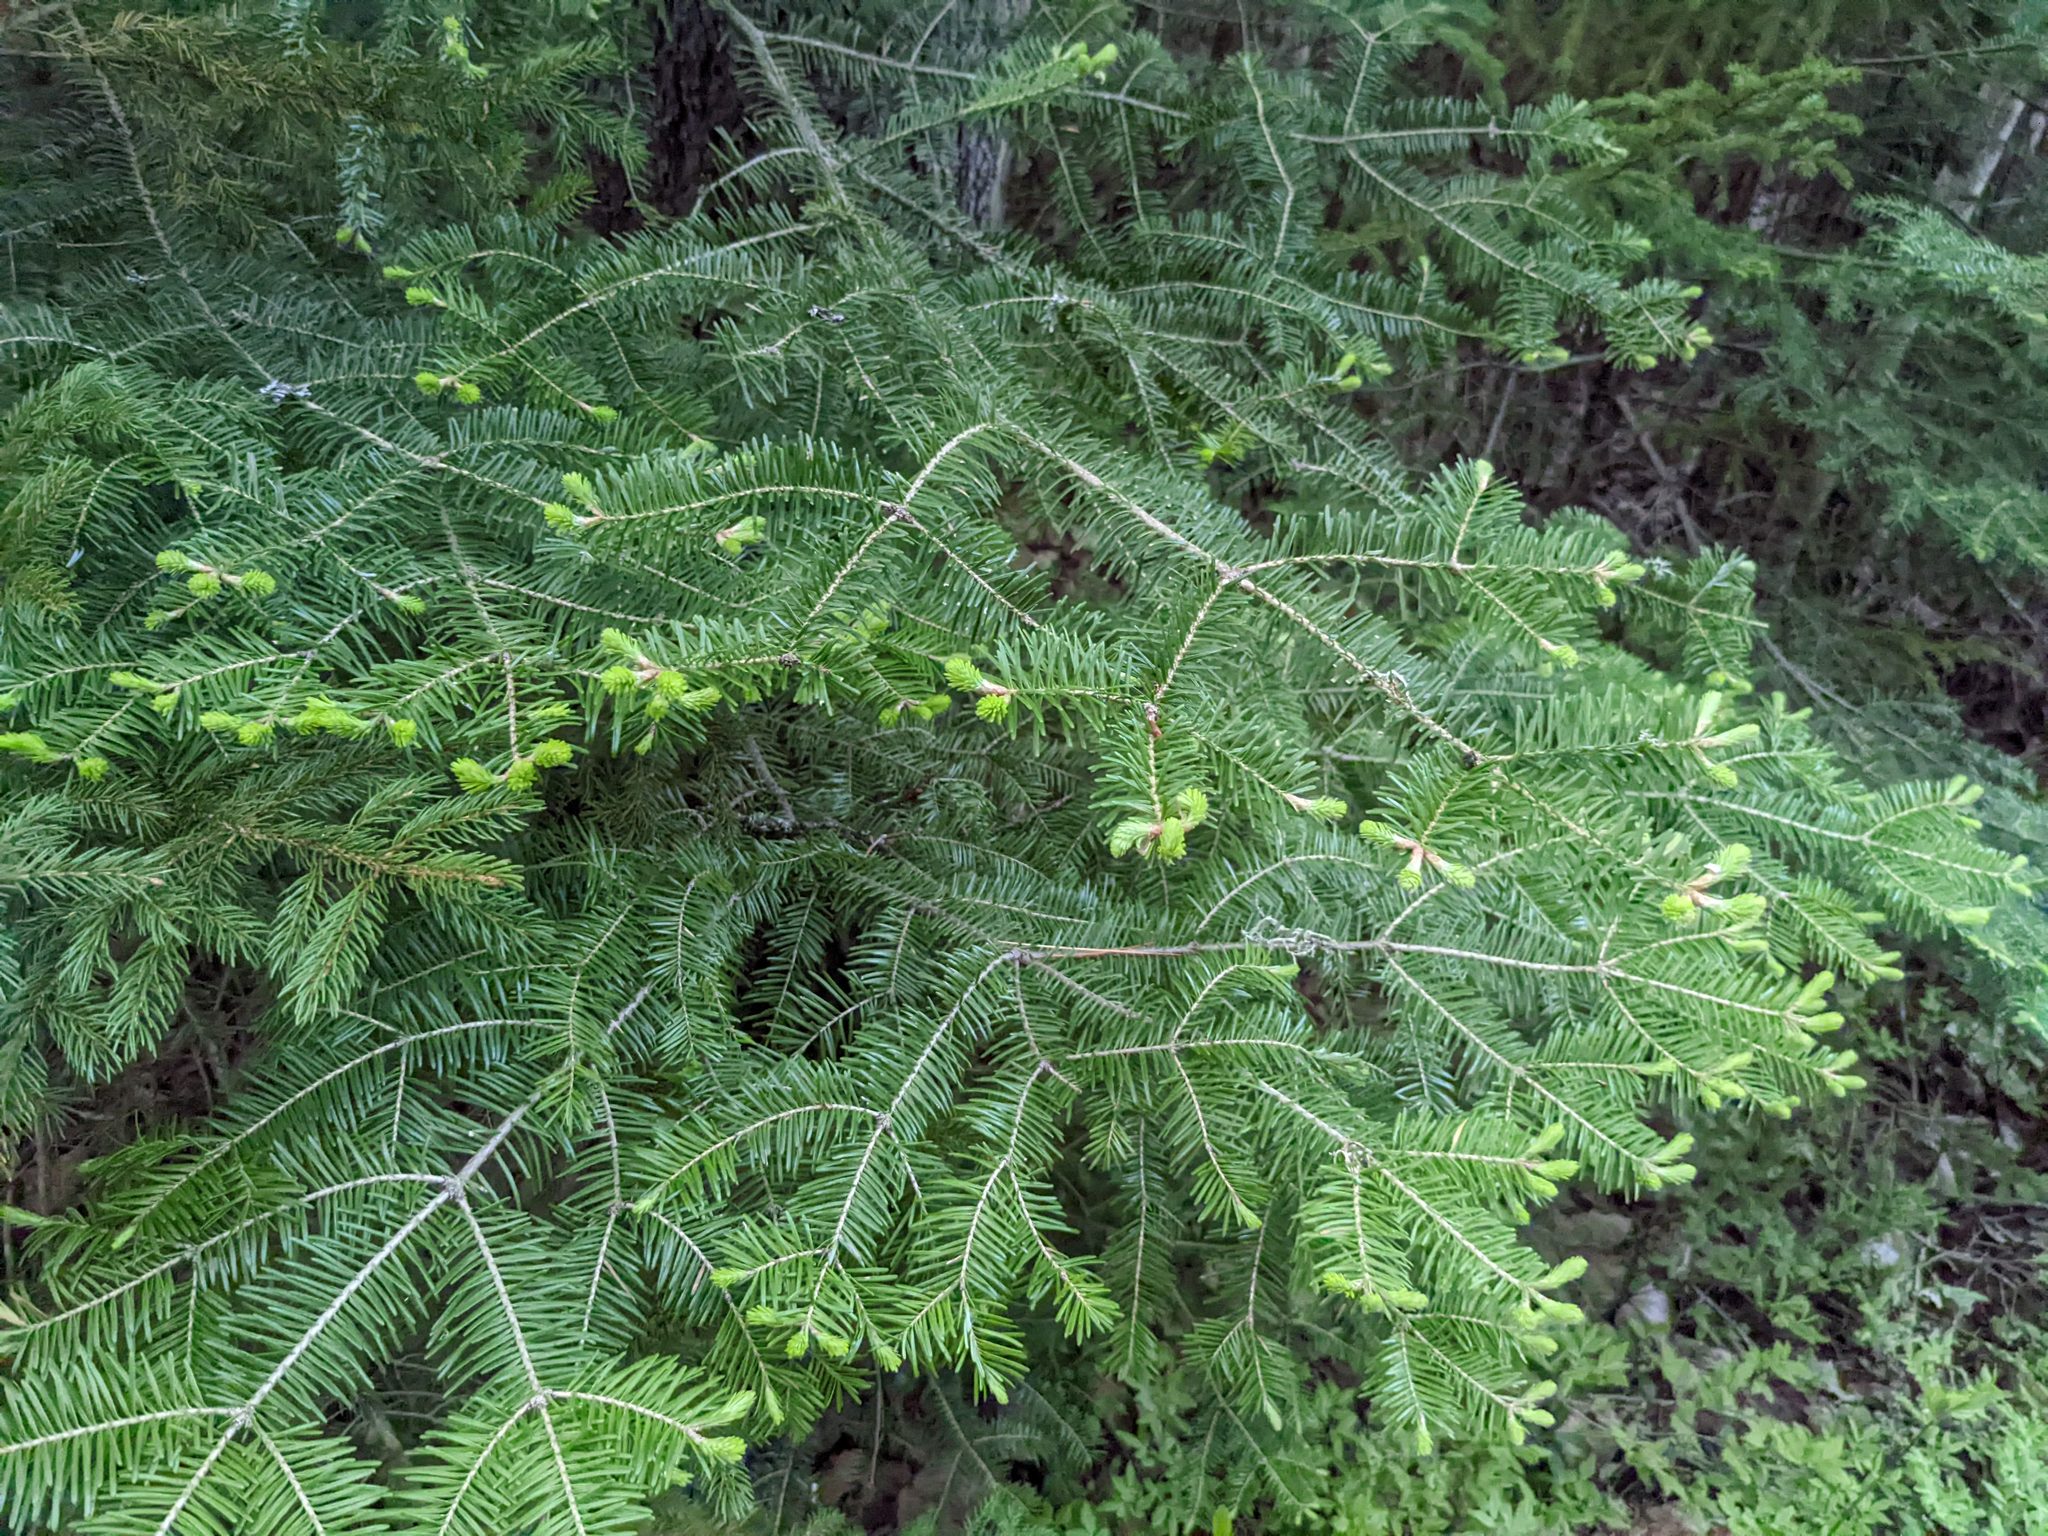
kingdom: Plantae
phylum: Tracheophyta
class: Pinopsida
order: Pinales
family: Pinaceae
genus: Abies
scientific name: Abies balsamea
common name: Balsam fir
